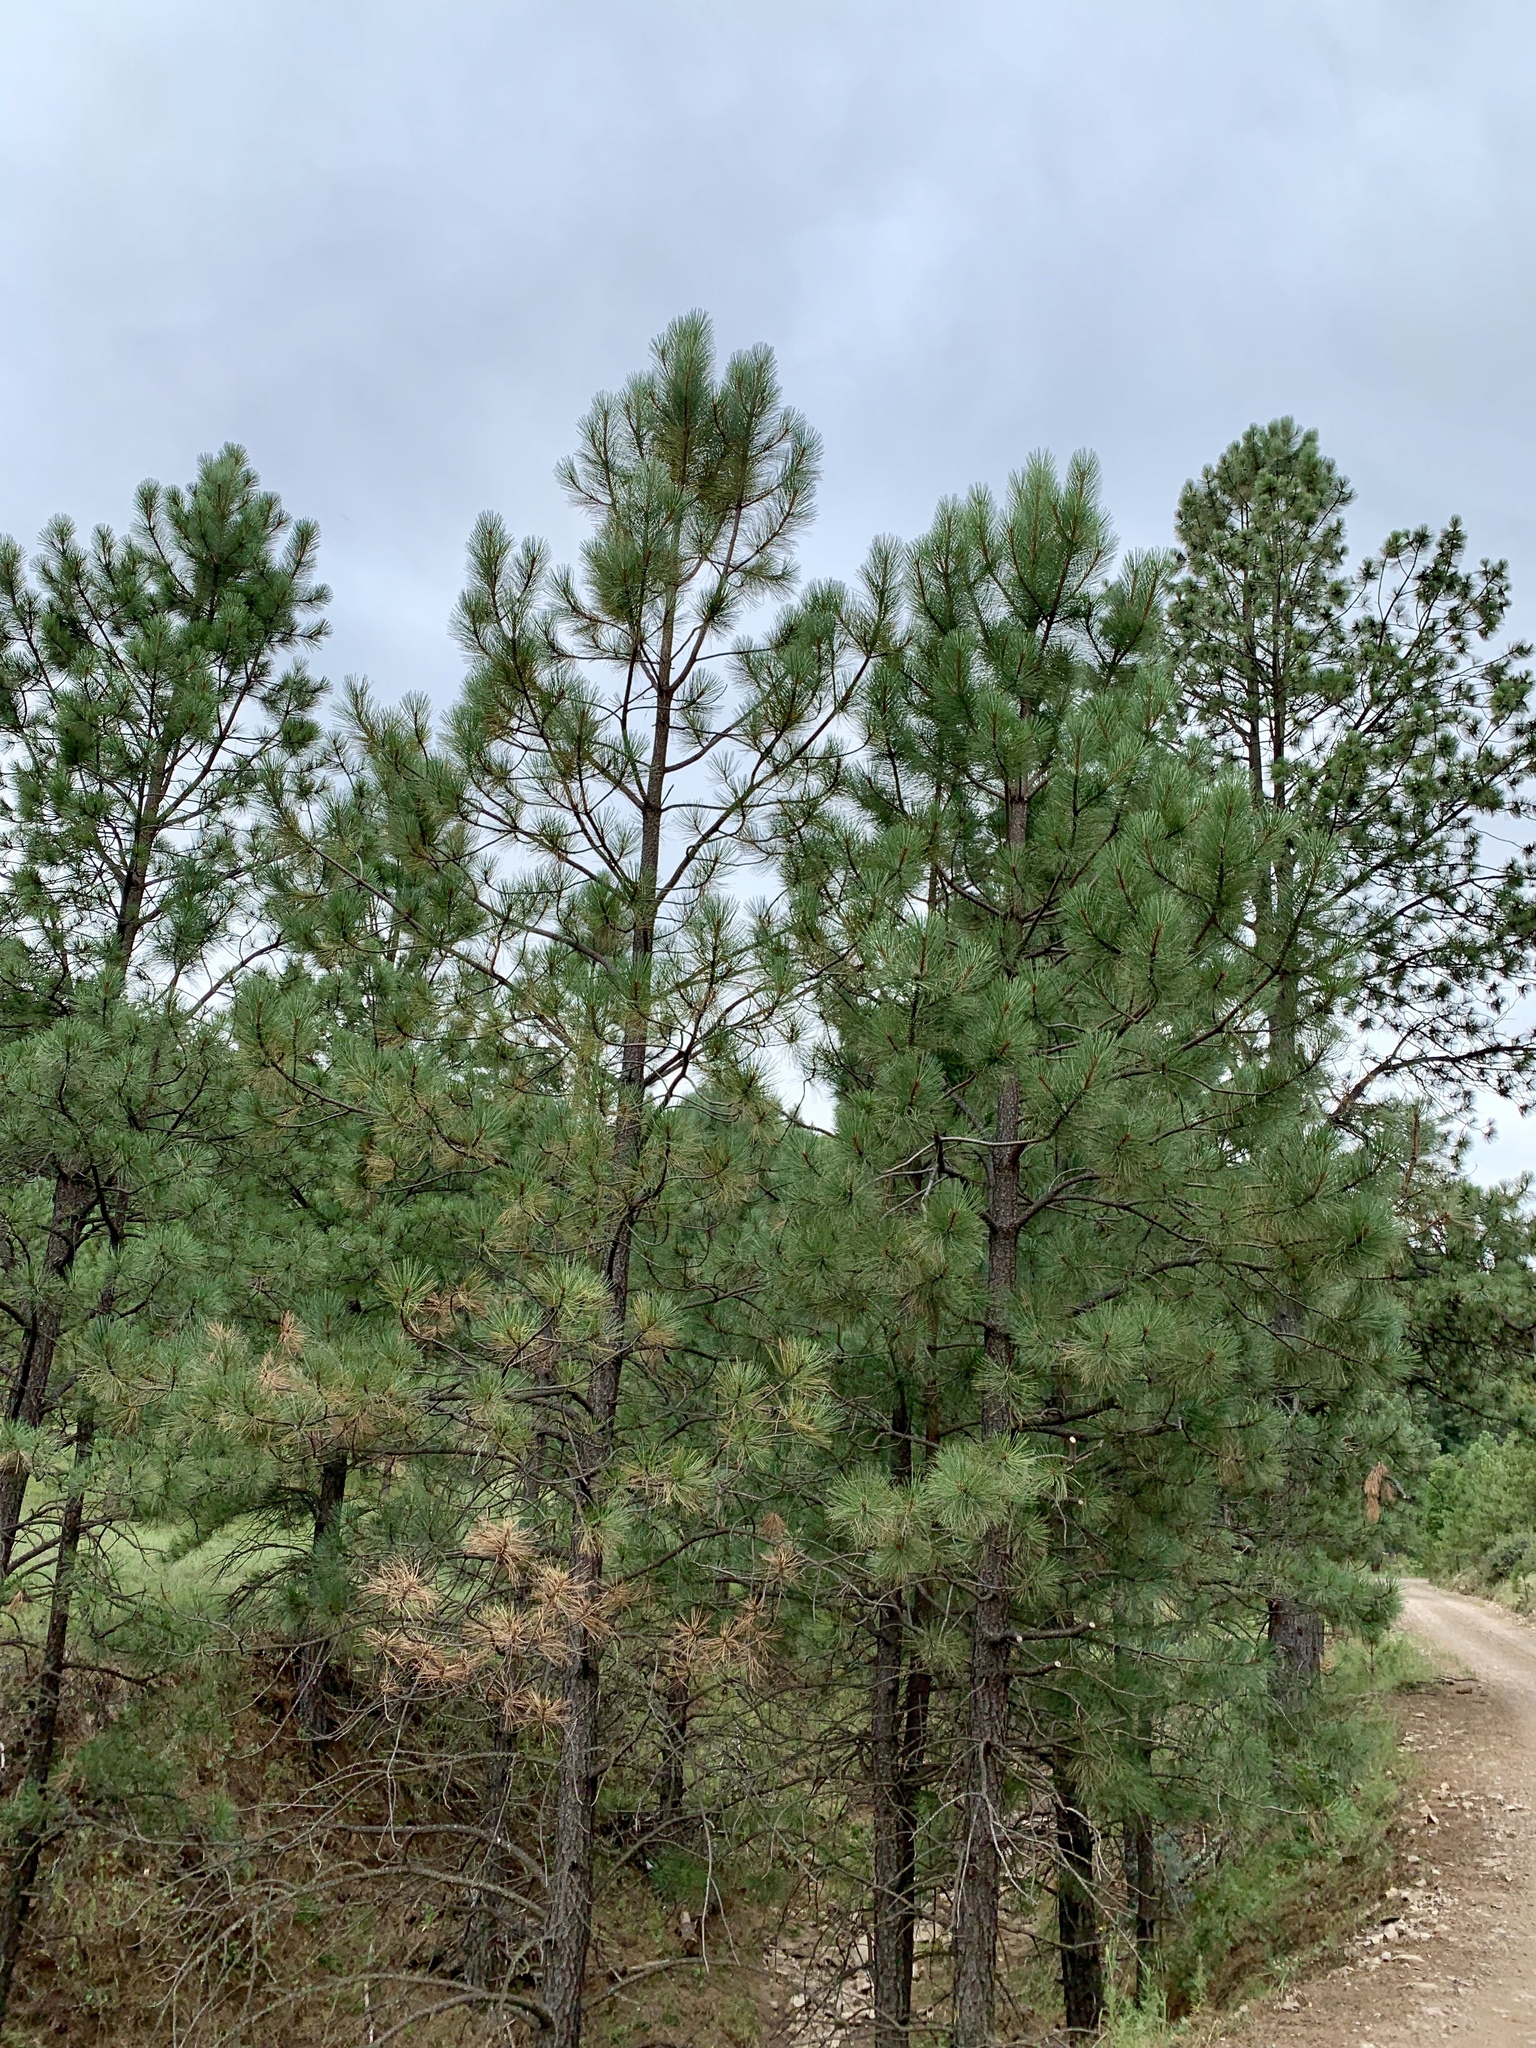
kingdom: Plantae
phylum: Tracheophyta
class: Pinopsida
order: Pinales
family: Pinaceae
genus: Pinus
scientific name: Pinus ponderosa
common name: Western yellow-pine
